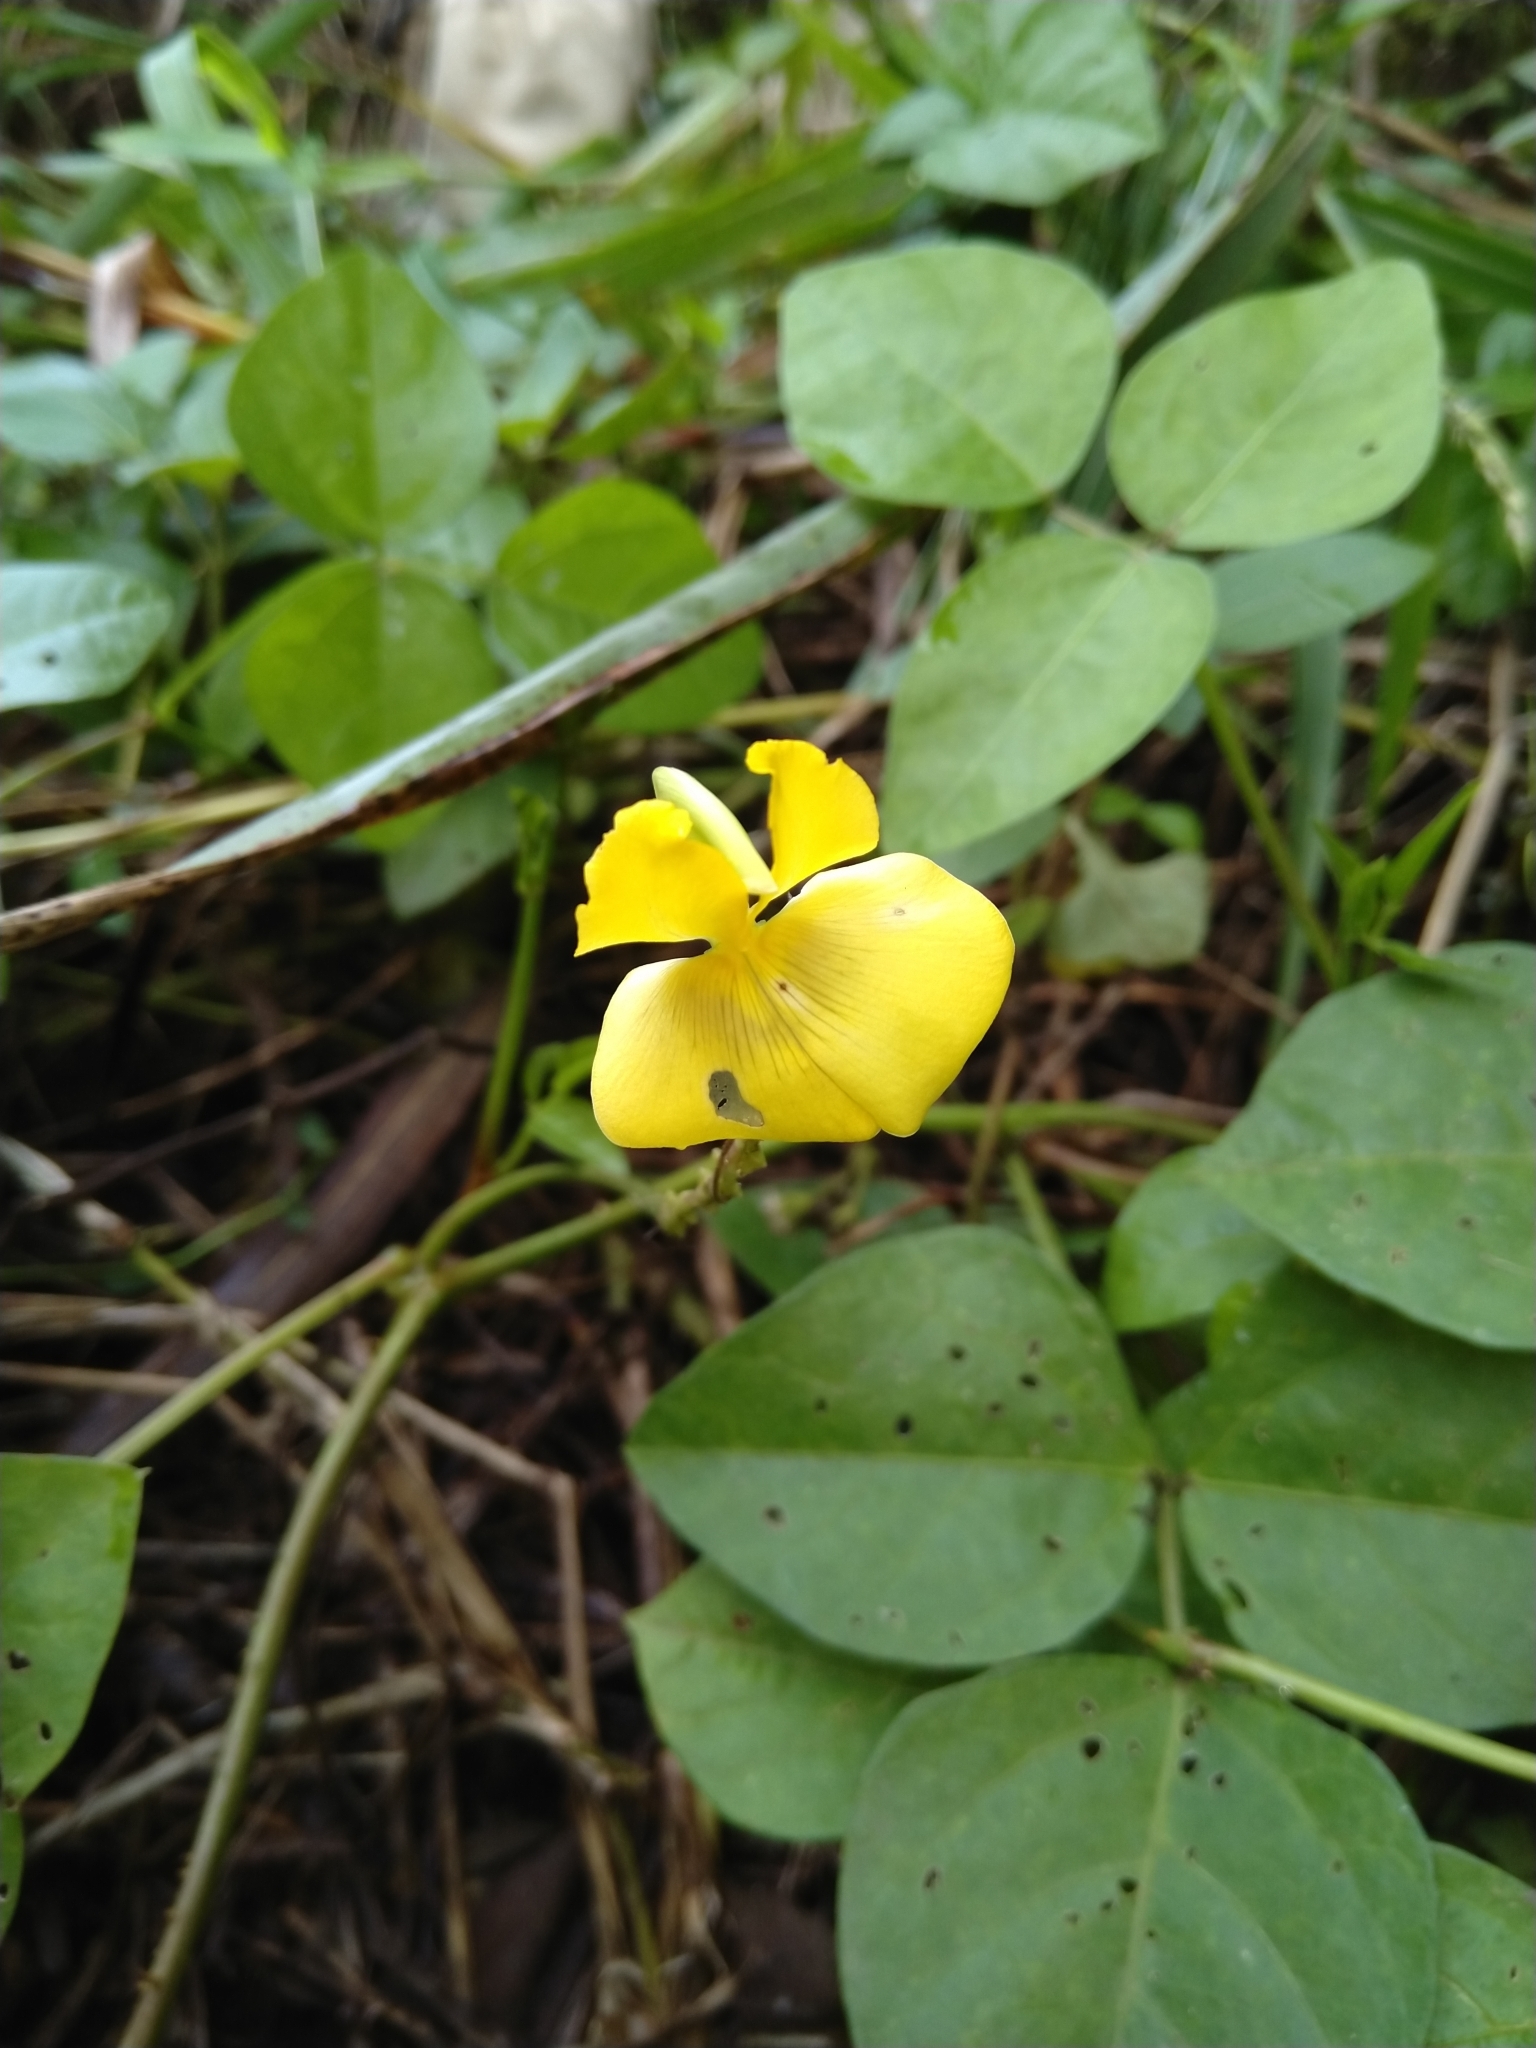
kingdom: Plantae
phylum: Tracheophyta
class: Magnoliopsida
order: Fabales
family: Fabaceae
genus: Vigna
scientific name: Vigna luteola
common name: Hairypod cowpea
